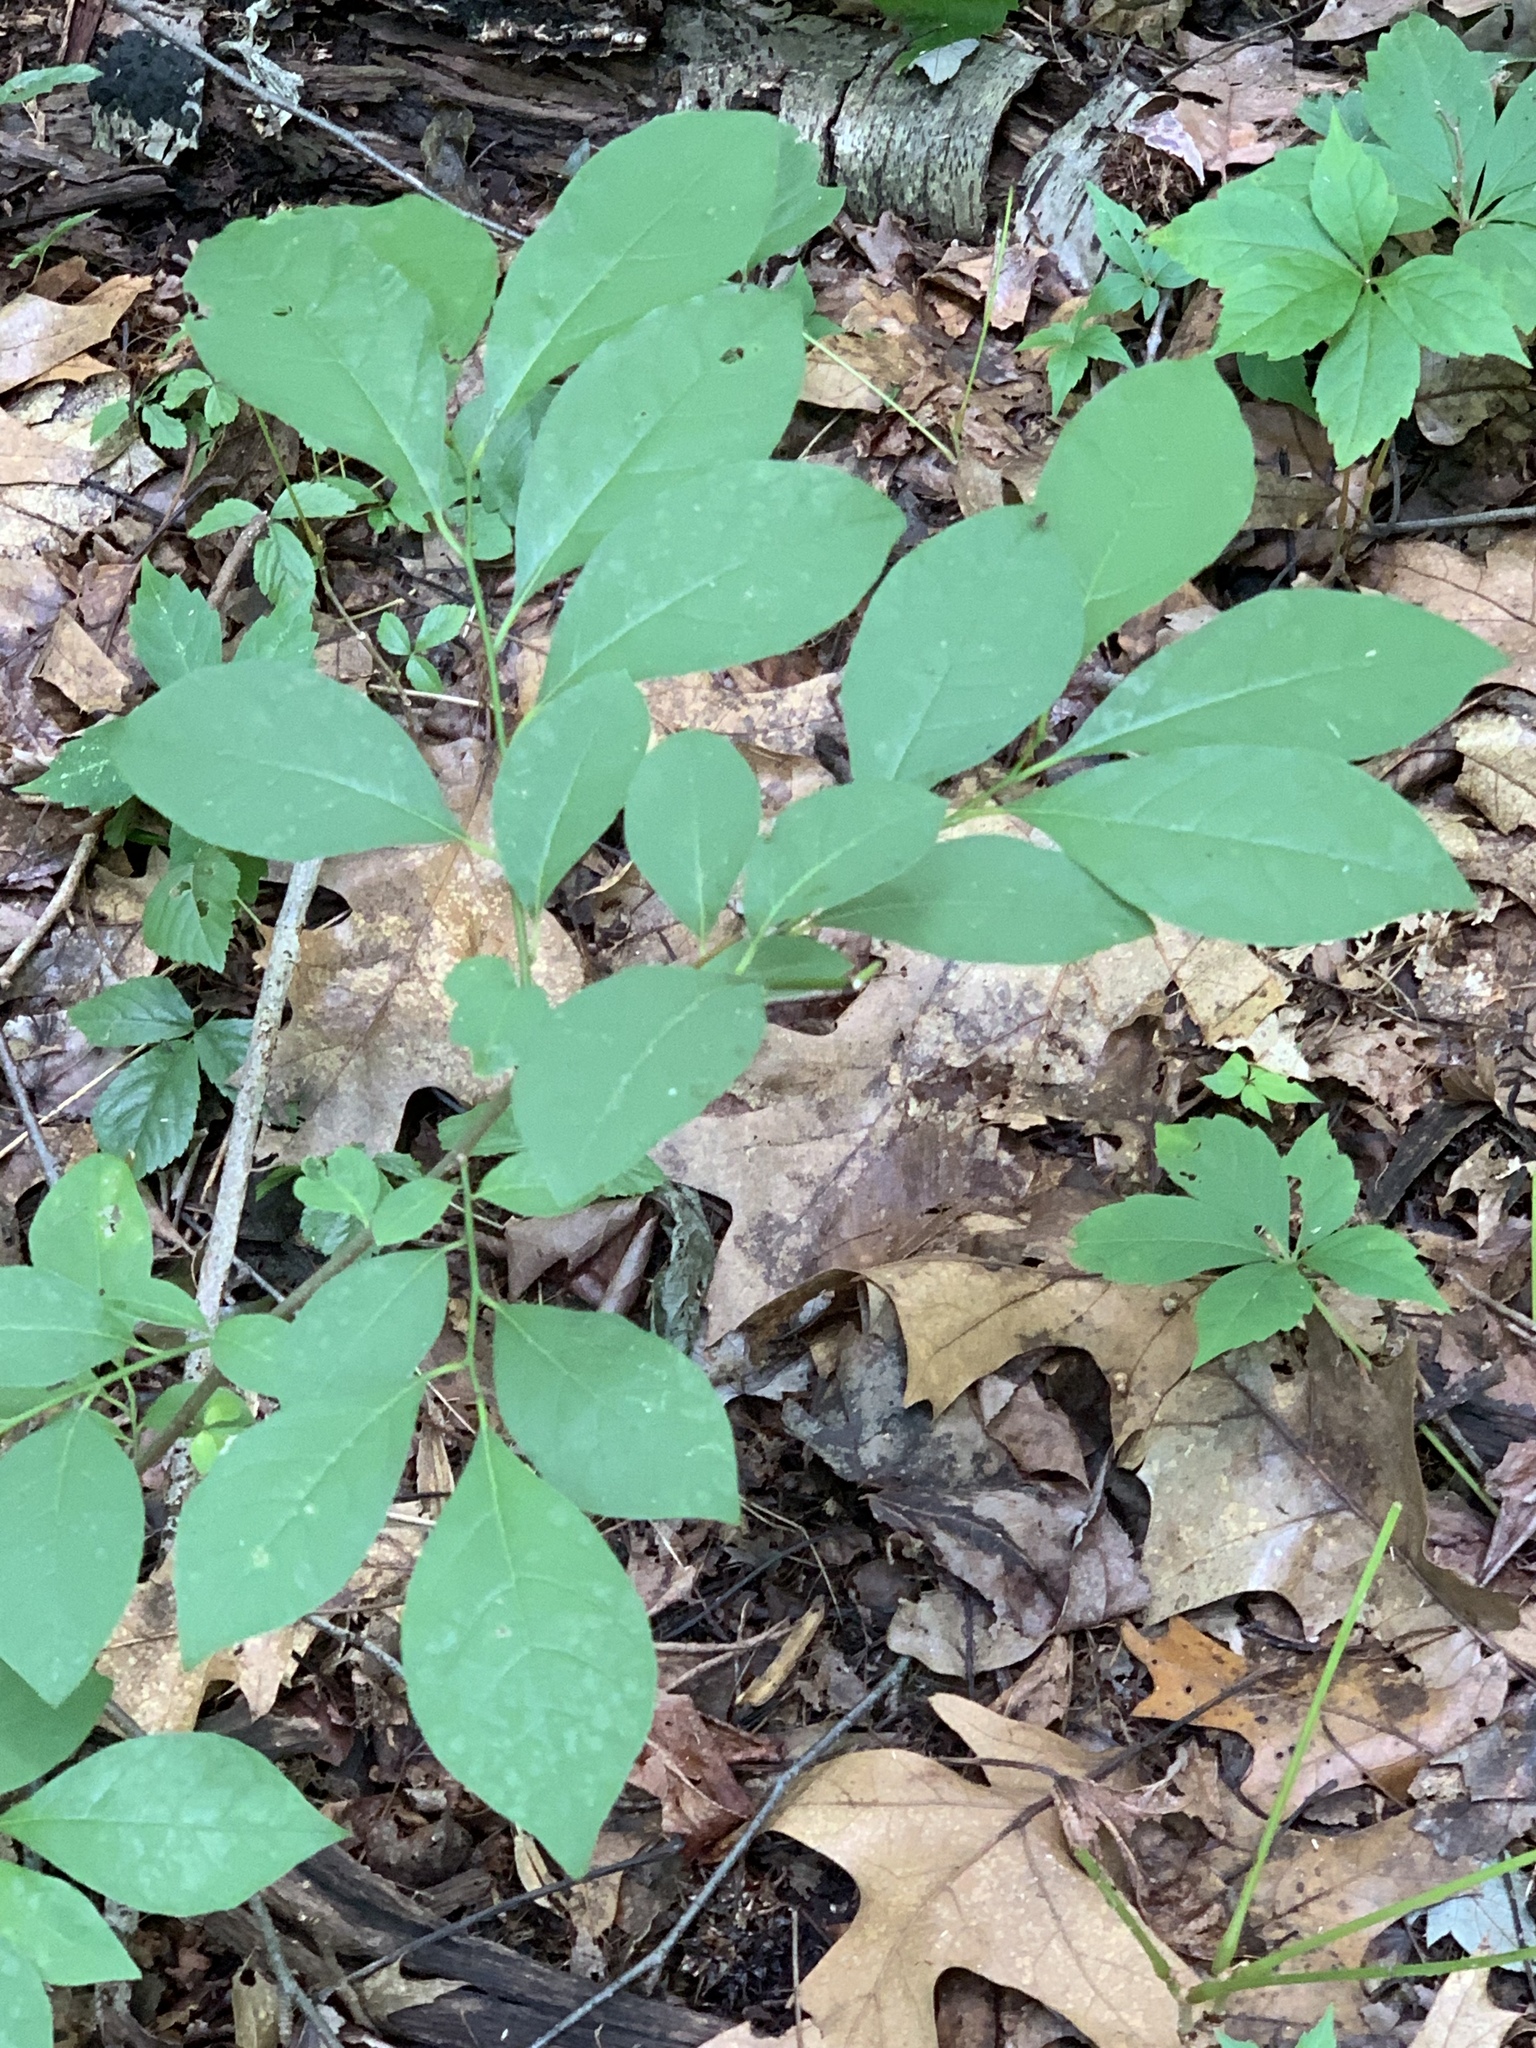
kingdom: Plantae
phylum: Tracheophyta
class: Magnoliopsida
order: Laurales
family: Lauraceae
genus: Lindera
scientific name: Lindera benzoin
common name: Spicebush
